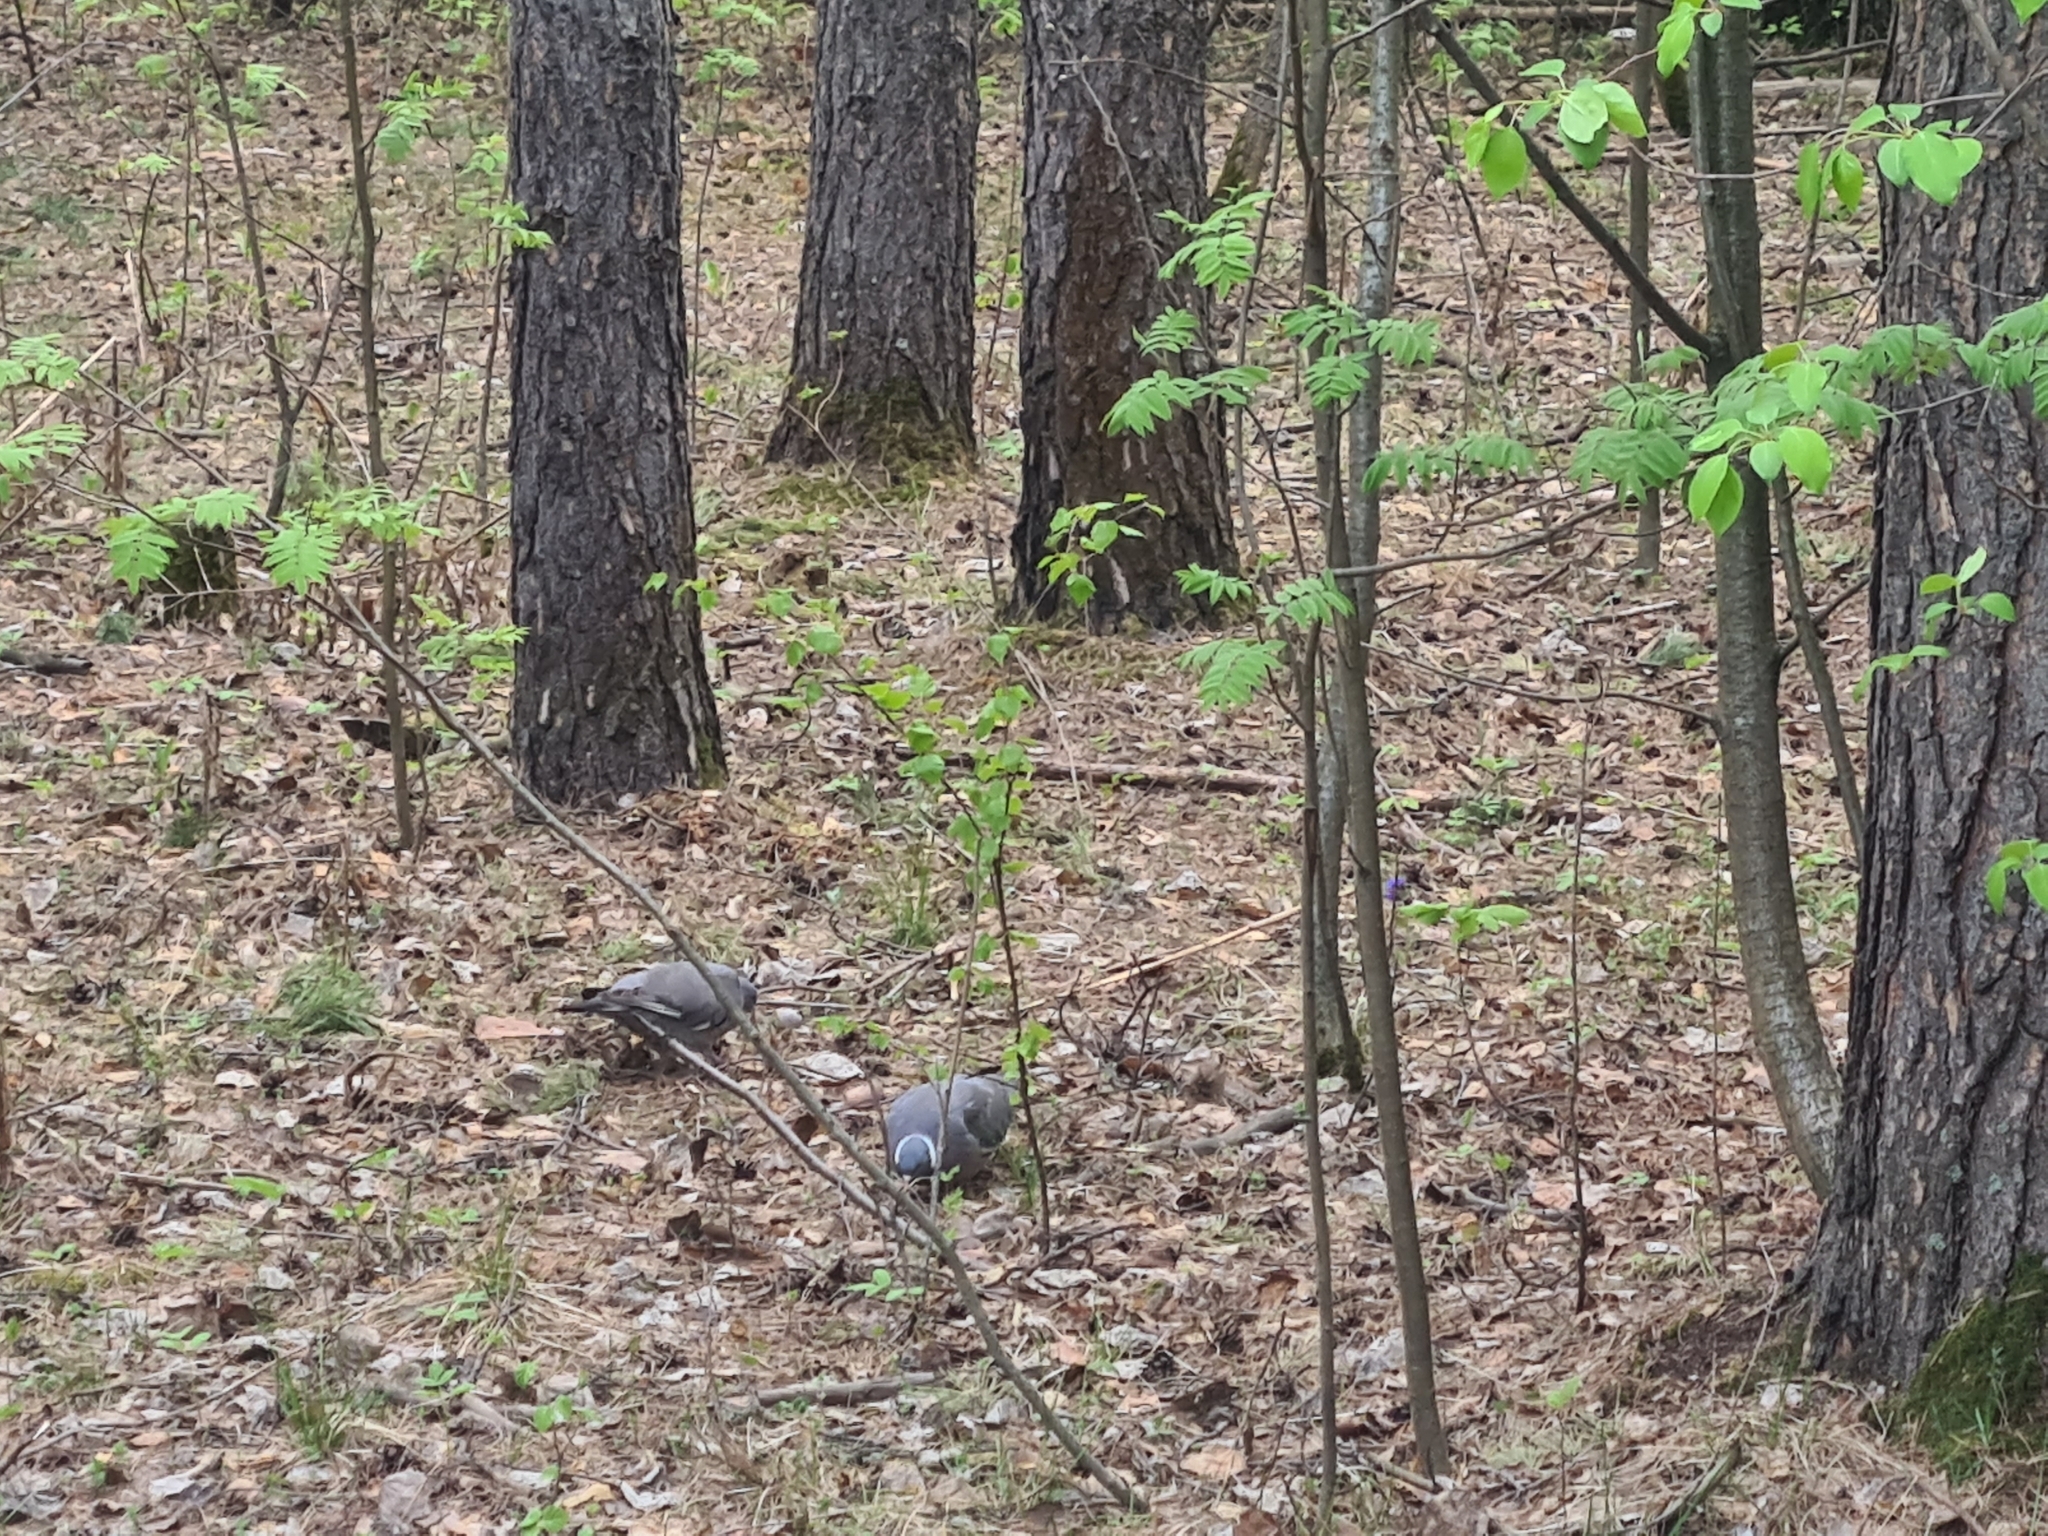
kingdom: Animalia
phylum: Chordata
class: Aves
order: Columbiformes
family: Columbidae
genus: Columba
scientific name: Columba palumbus
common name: Common wood pigeon
